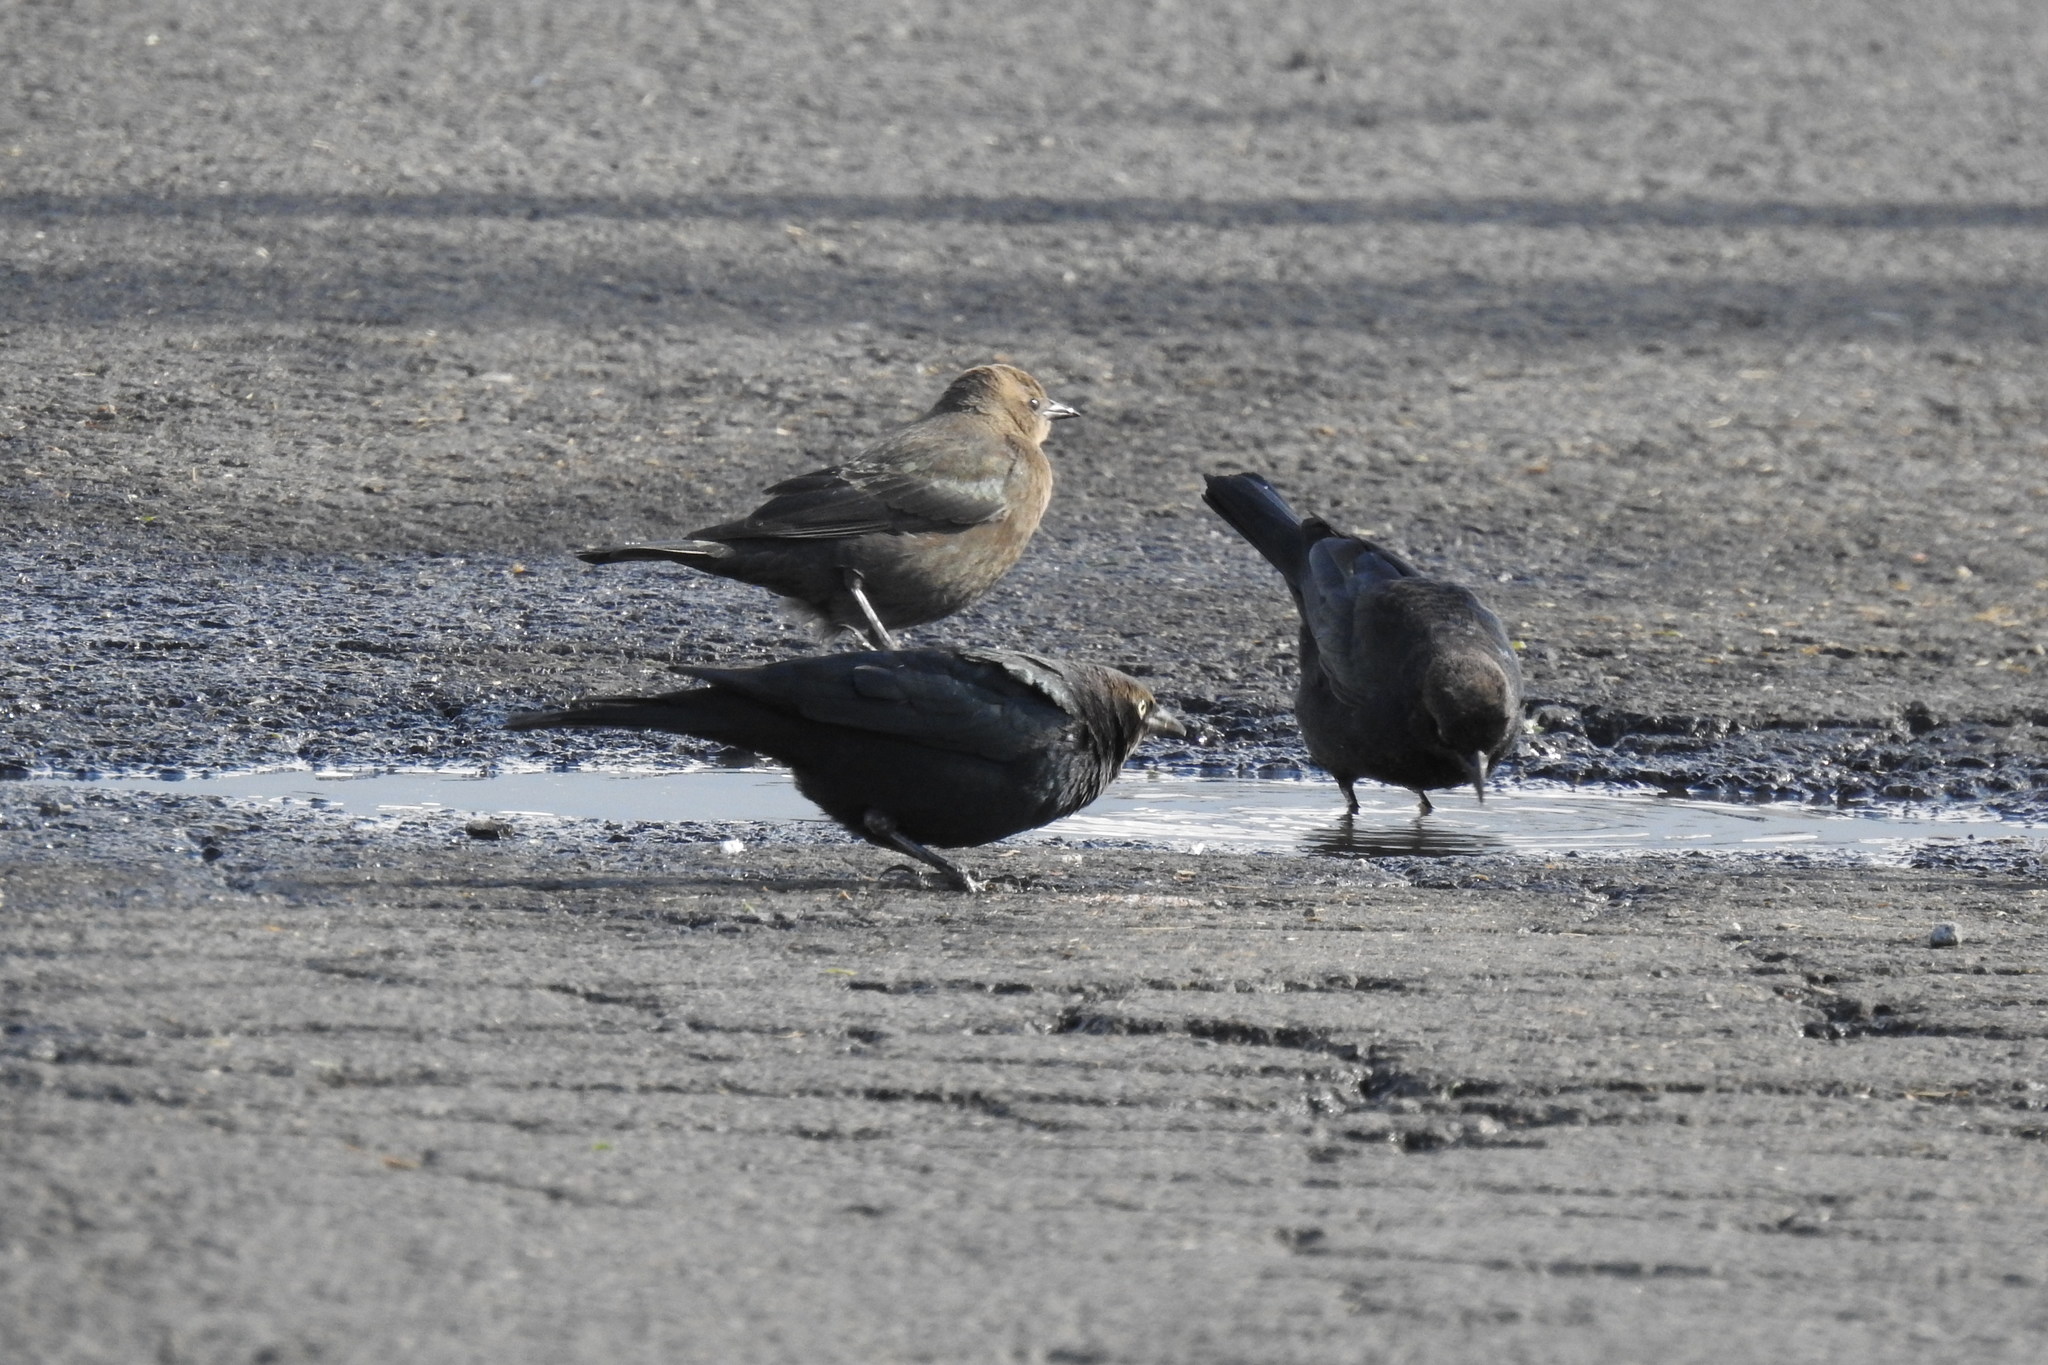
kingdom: Animalia
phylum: Chordata
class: Aves
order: Passeriformes
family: Icteridae
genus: Euphagus
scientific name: Euphagus cyanocephalus
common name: Brewer's blackbird
